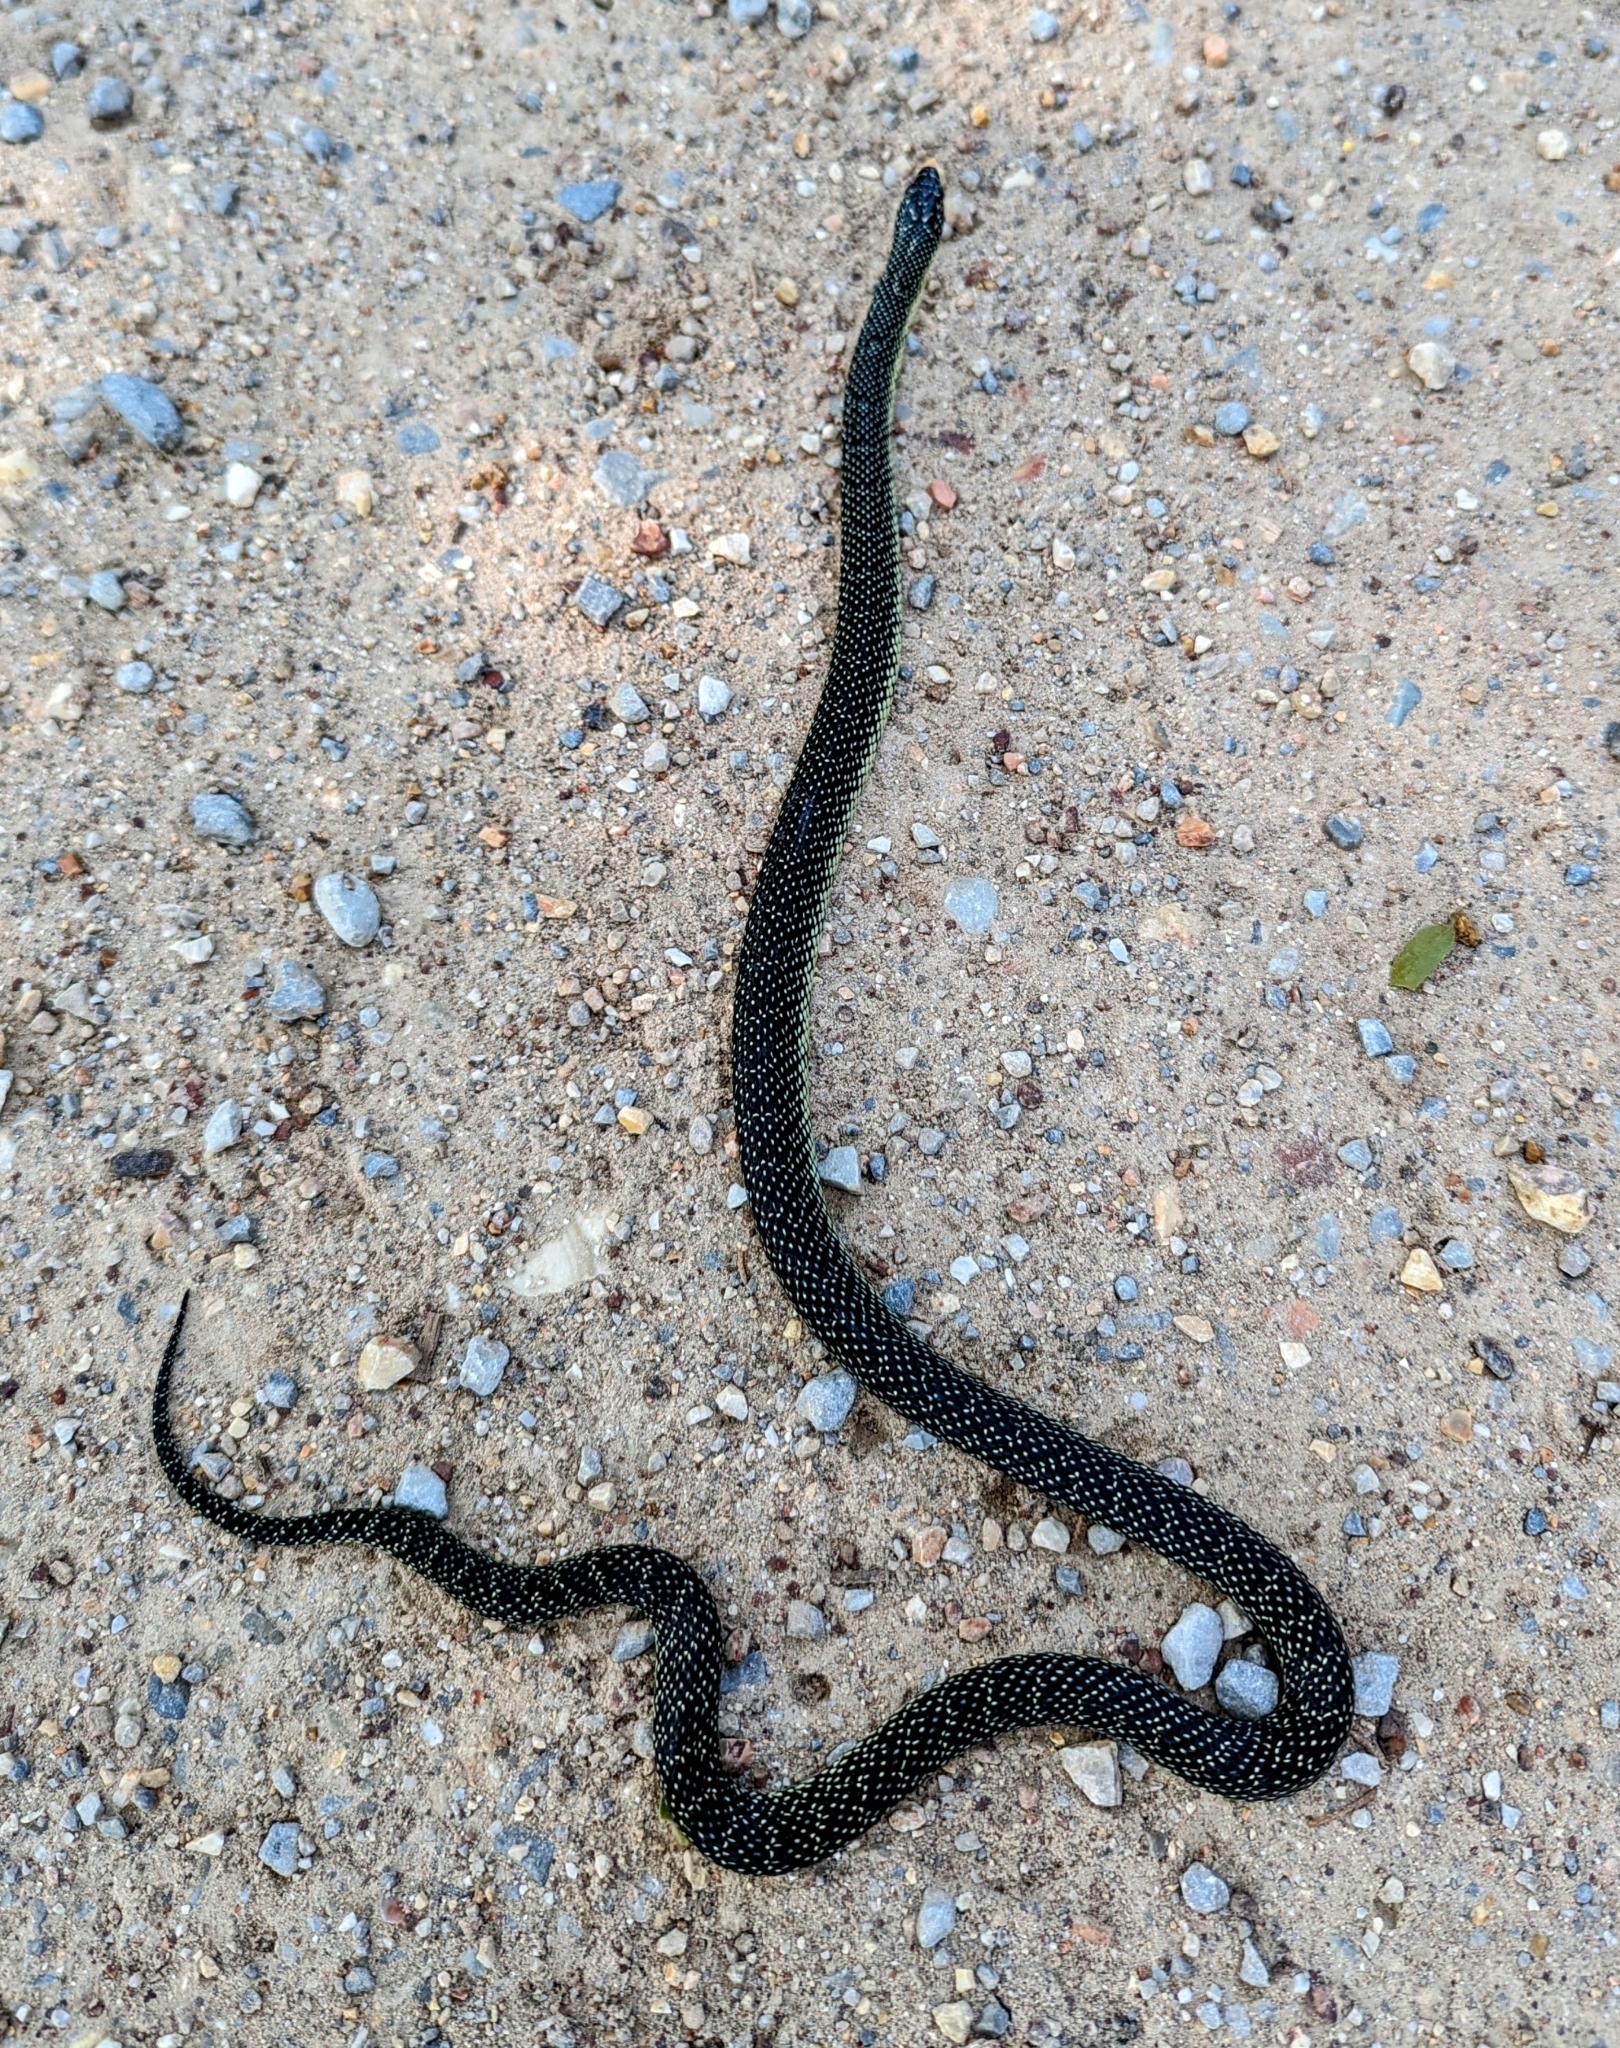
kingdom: Animalia
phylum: Chordata
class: Squamata
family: Colubridae
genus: Lampropeltis
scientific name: Lampropeltis holbrooki
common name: Speckled kingsnake
